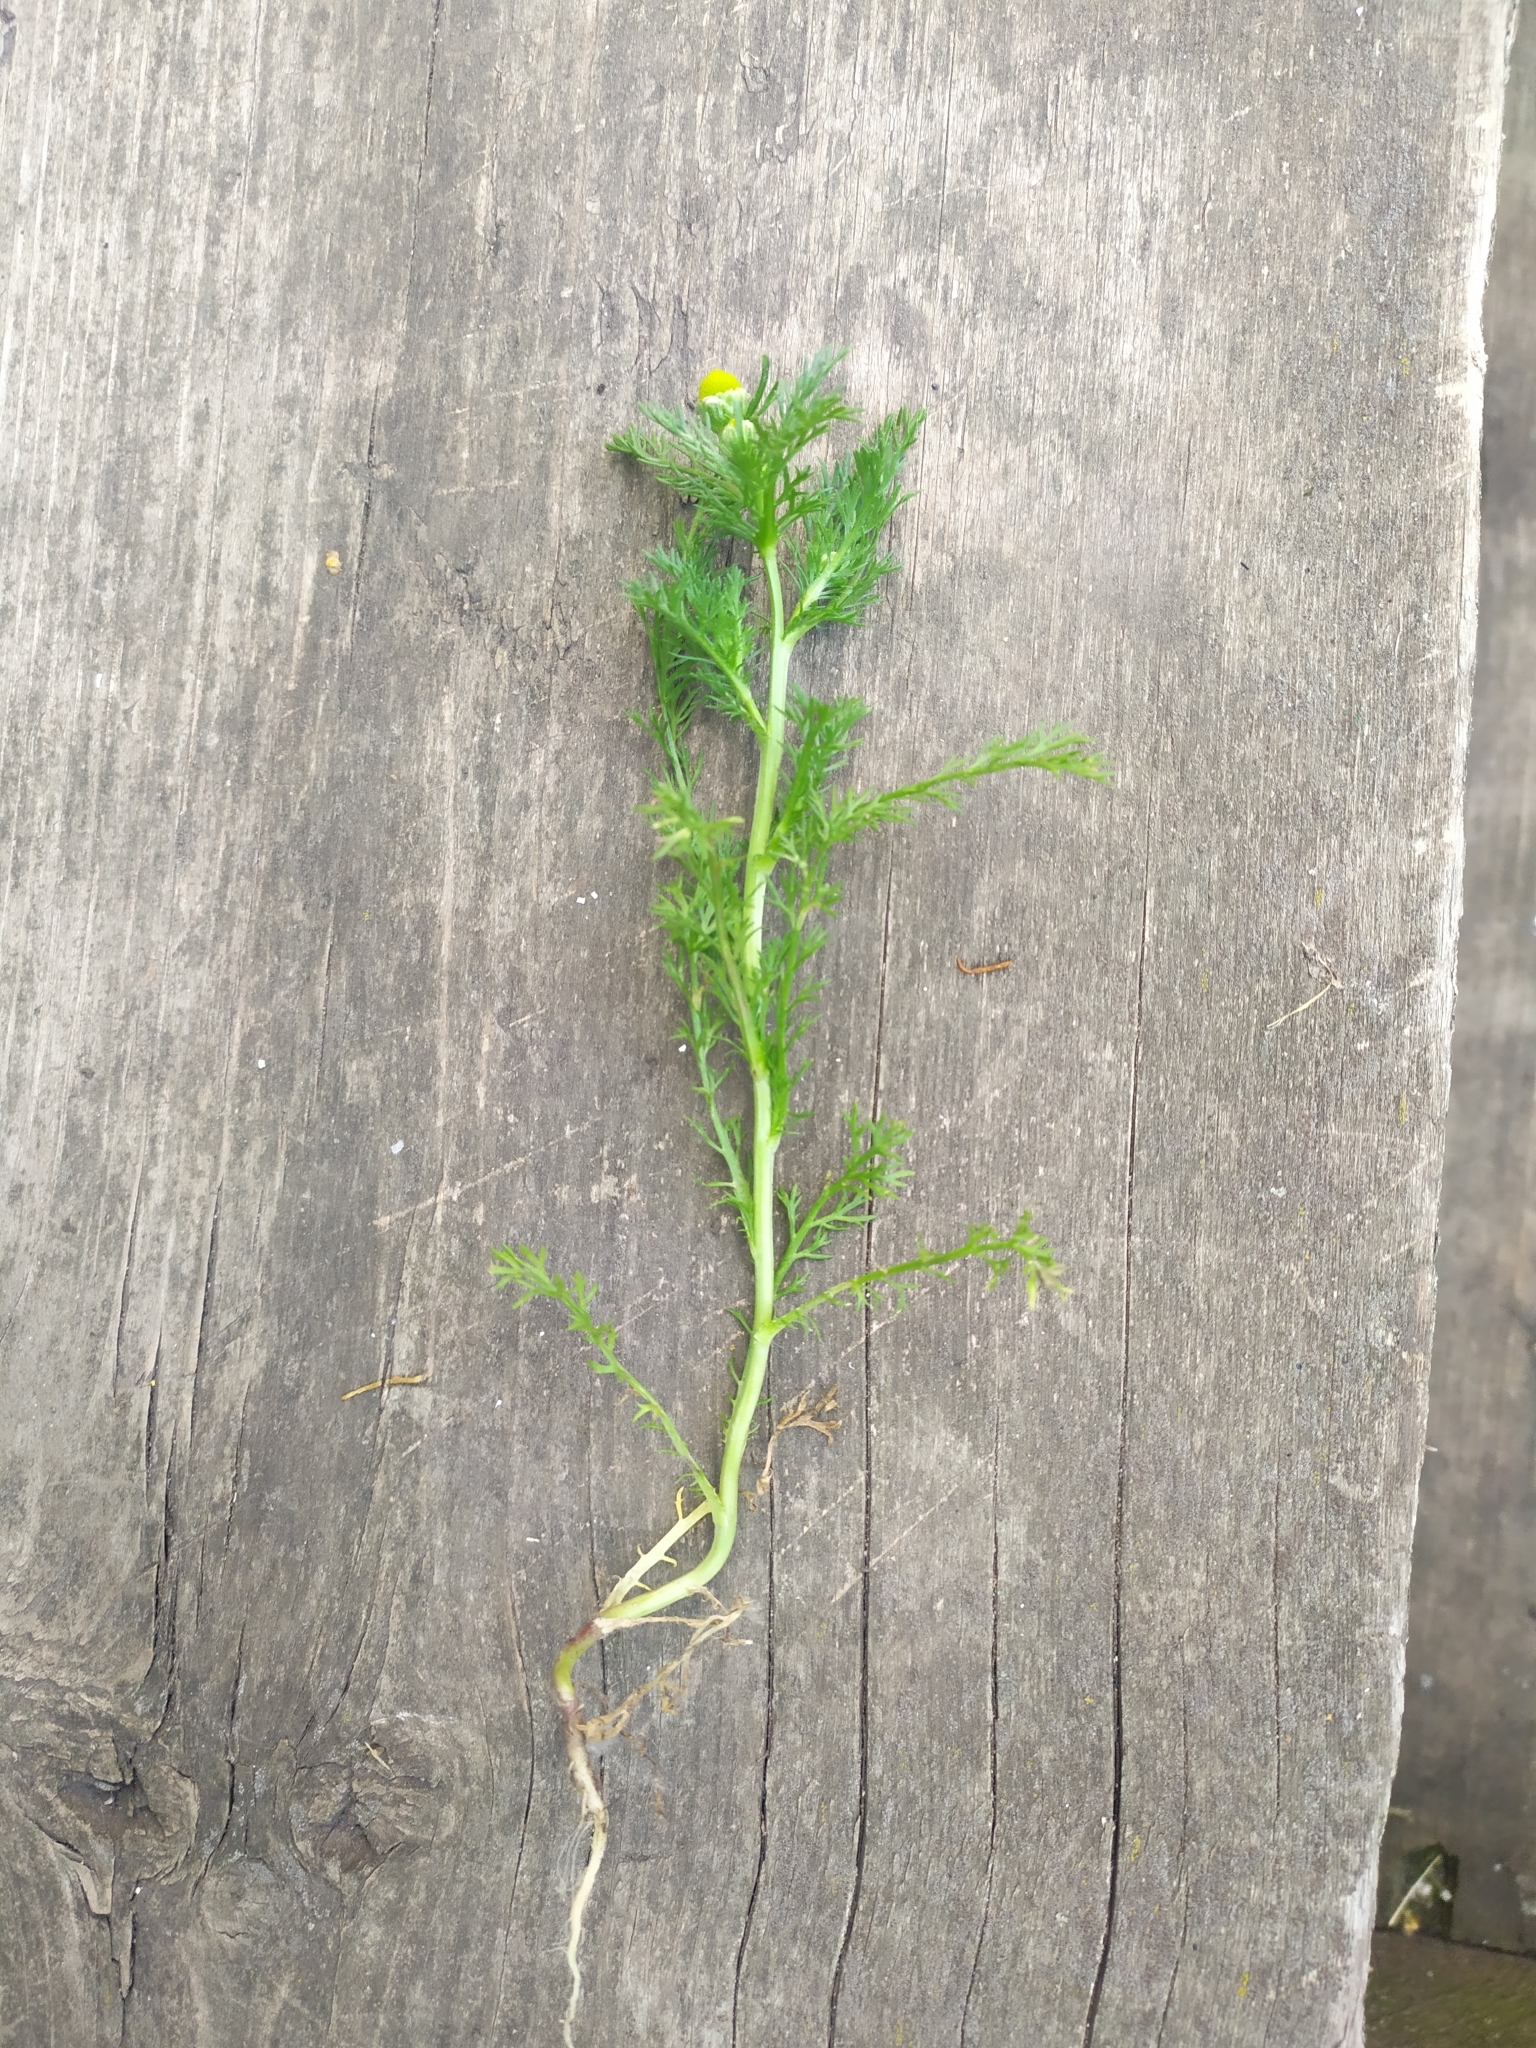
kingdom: Plantae
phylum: Tracheophyta
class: Magnoliopsida
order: Asterales
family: Asteraceae
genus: Matricaria
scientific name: Matricaria discoidea
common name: Disc mayweed
